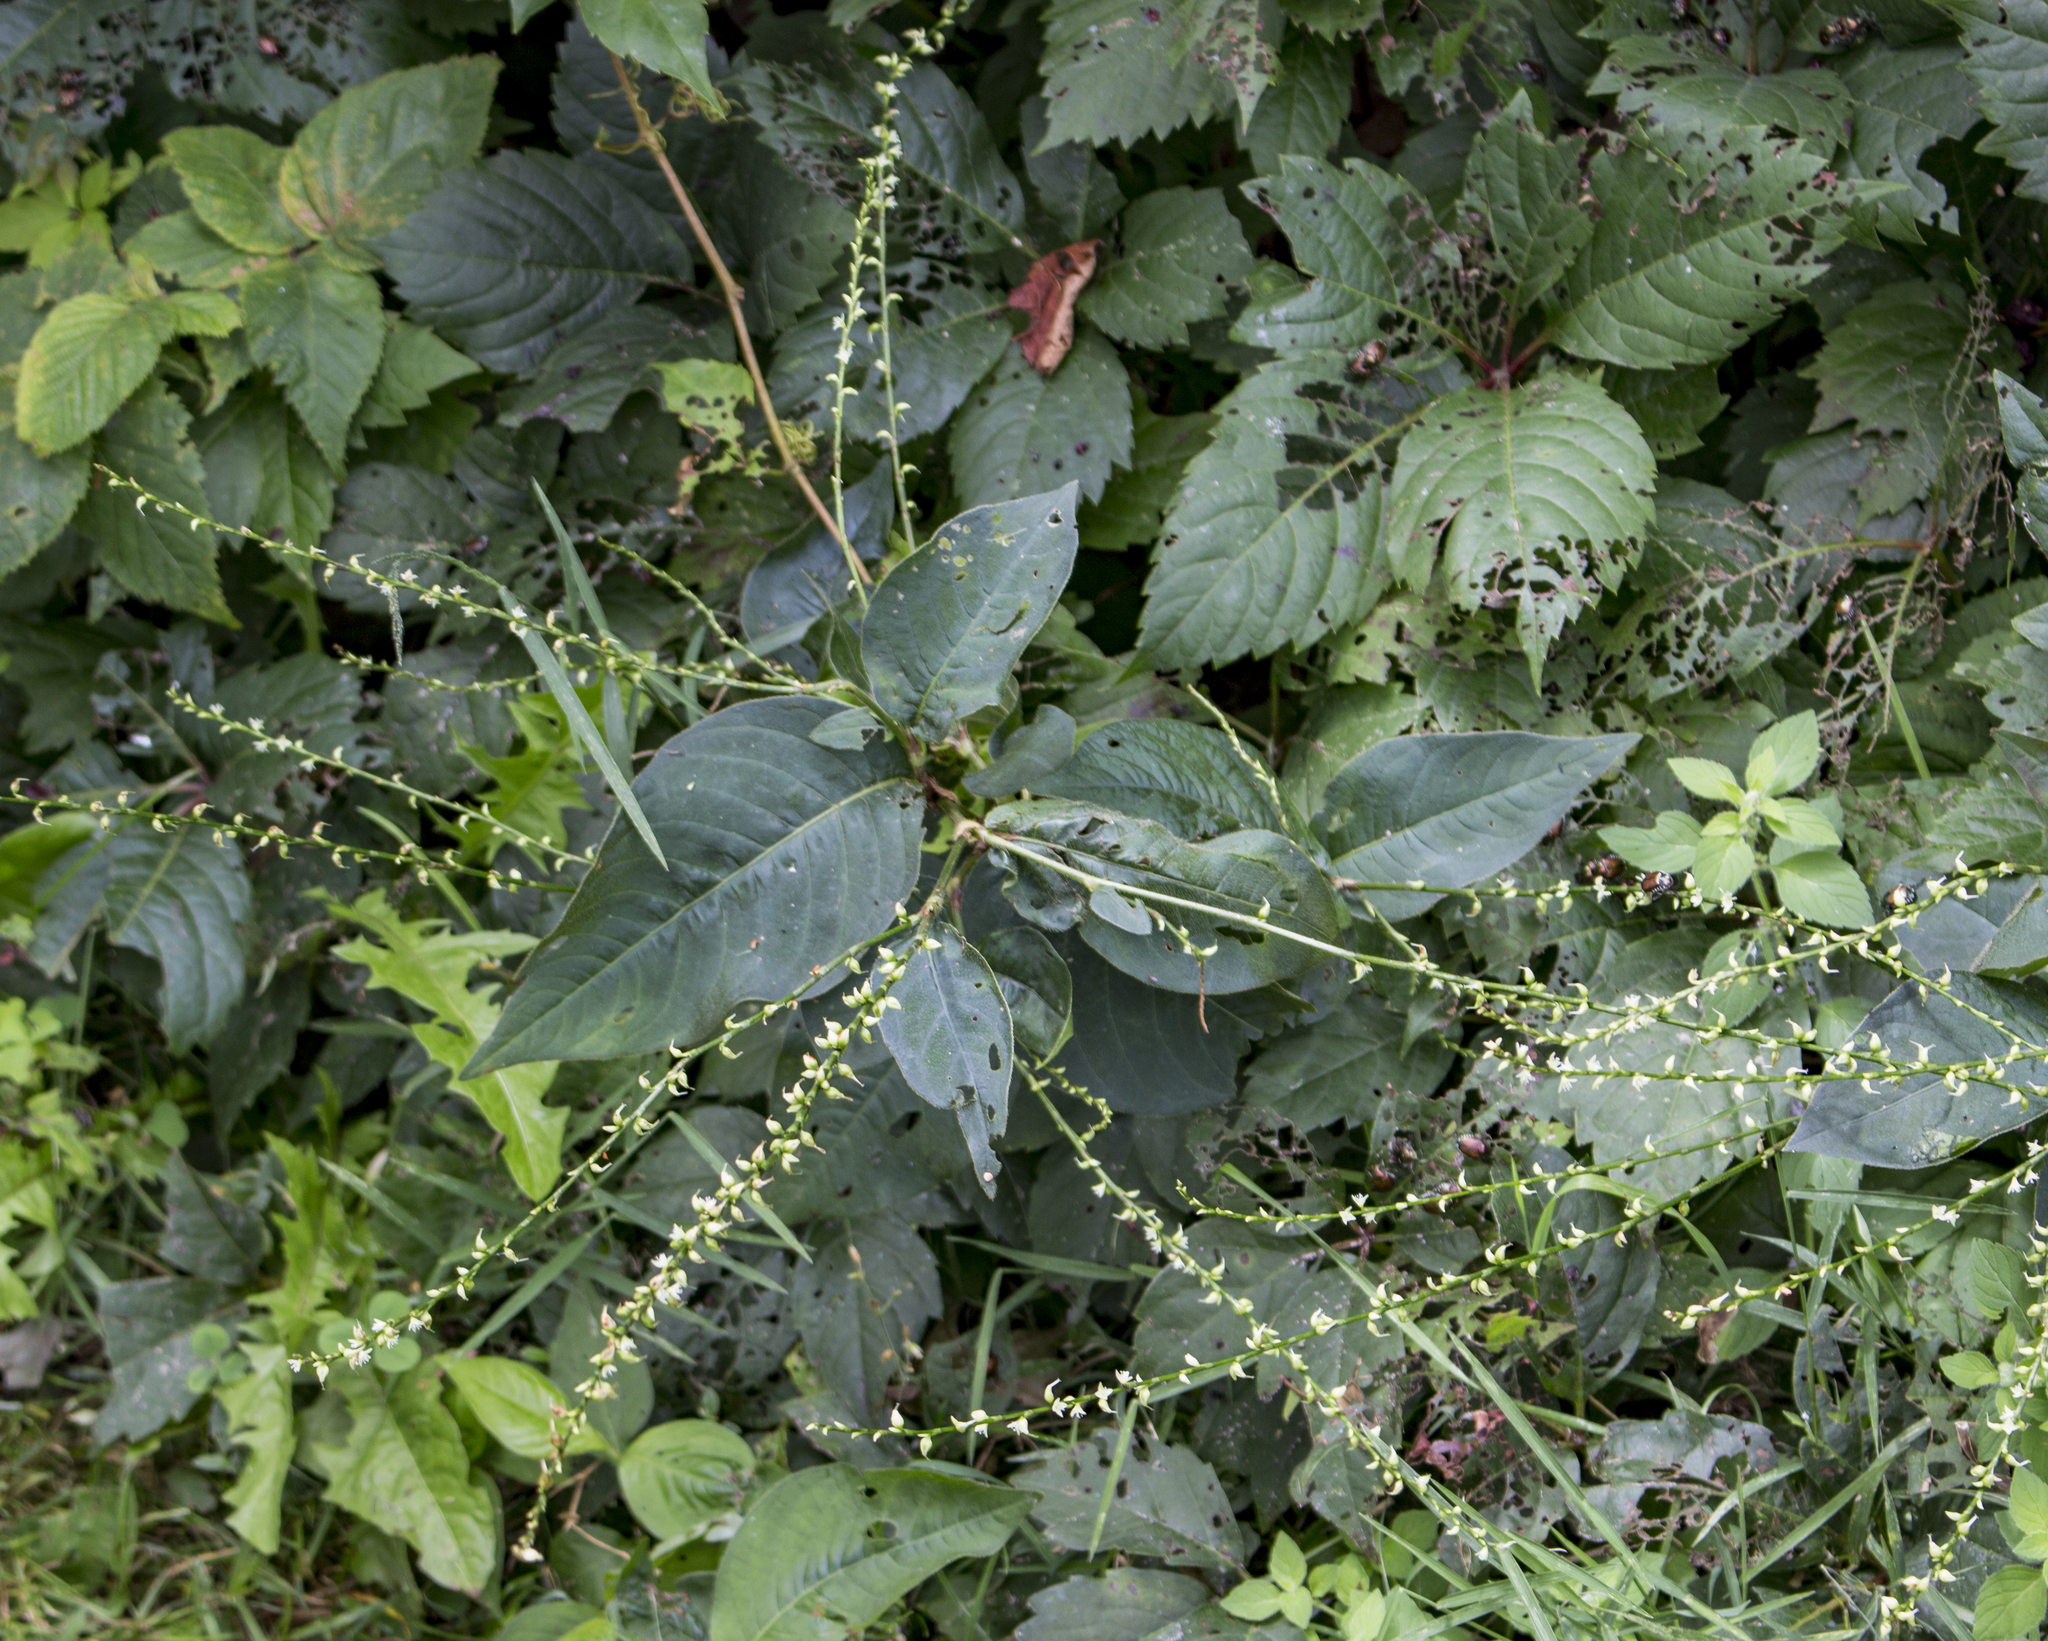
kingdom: Plantae
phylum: Tracheophyta
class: Magnoliopsida
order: Caryophyllales
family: Polygonaceae
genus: Persicaria
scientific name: Persicaria virginiana
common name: Jumpseed
